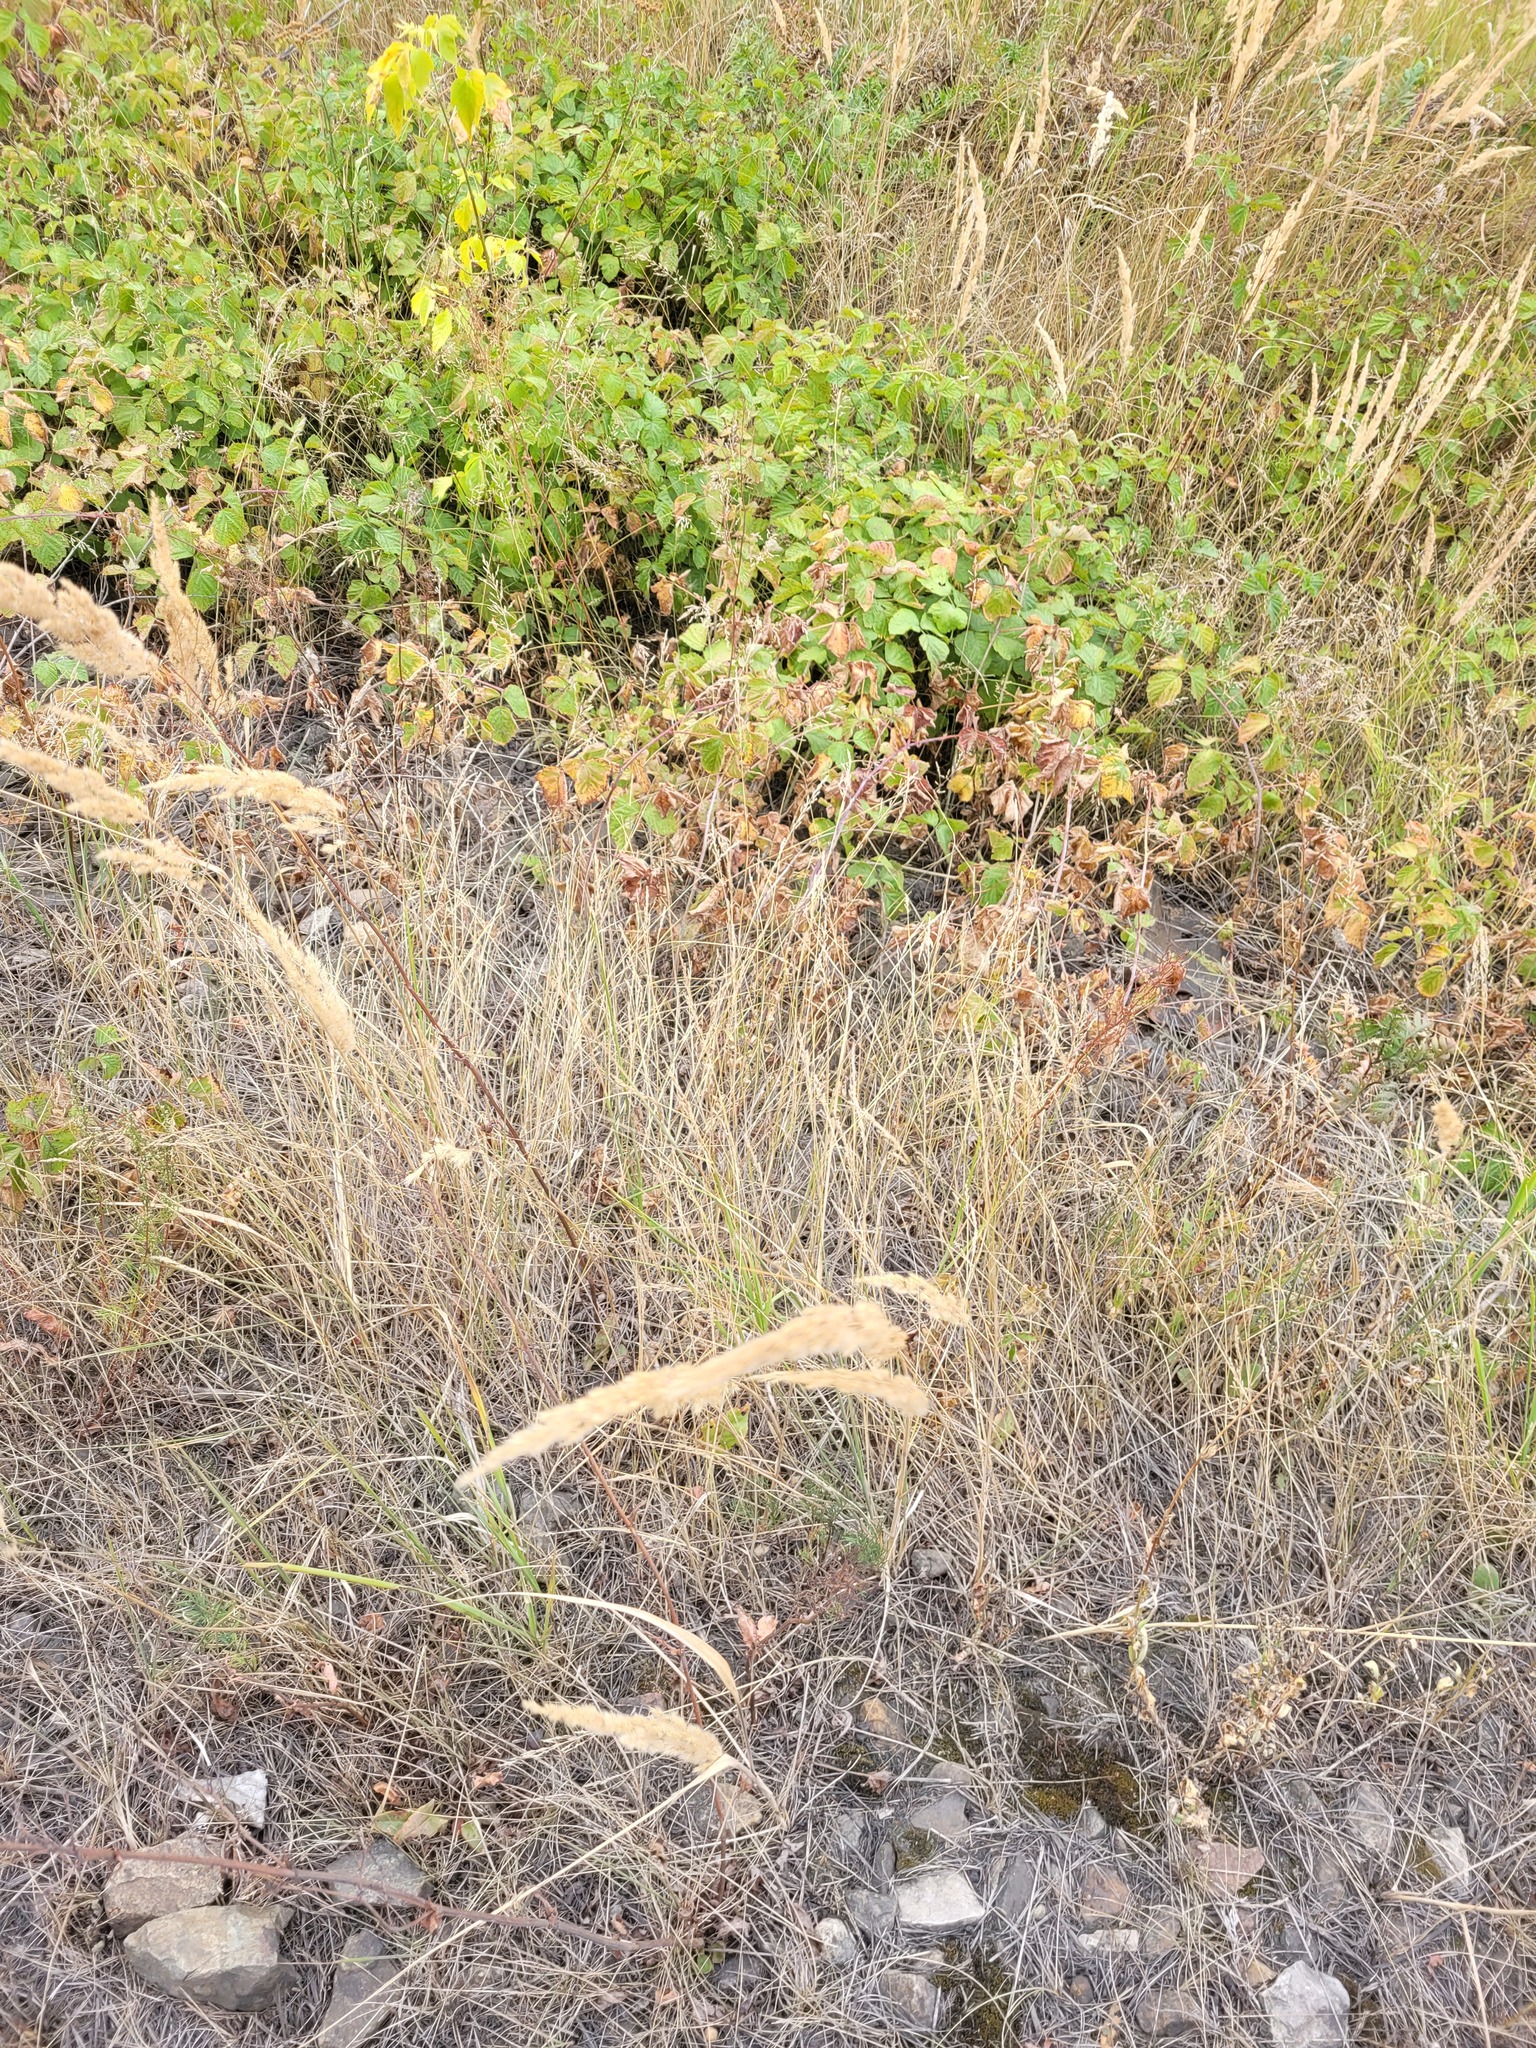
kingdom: Plantae
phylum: Tracheophyta
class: Liliopsida
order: Poales
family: Poaceae
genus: Calamagrostis
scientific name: Calamagrostis epigejos
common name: Wood small-reed
